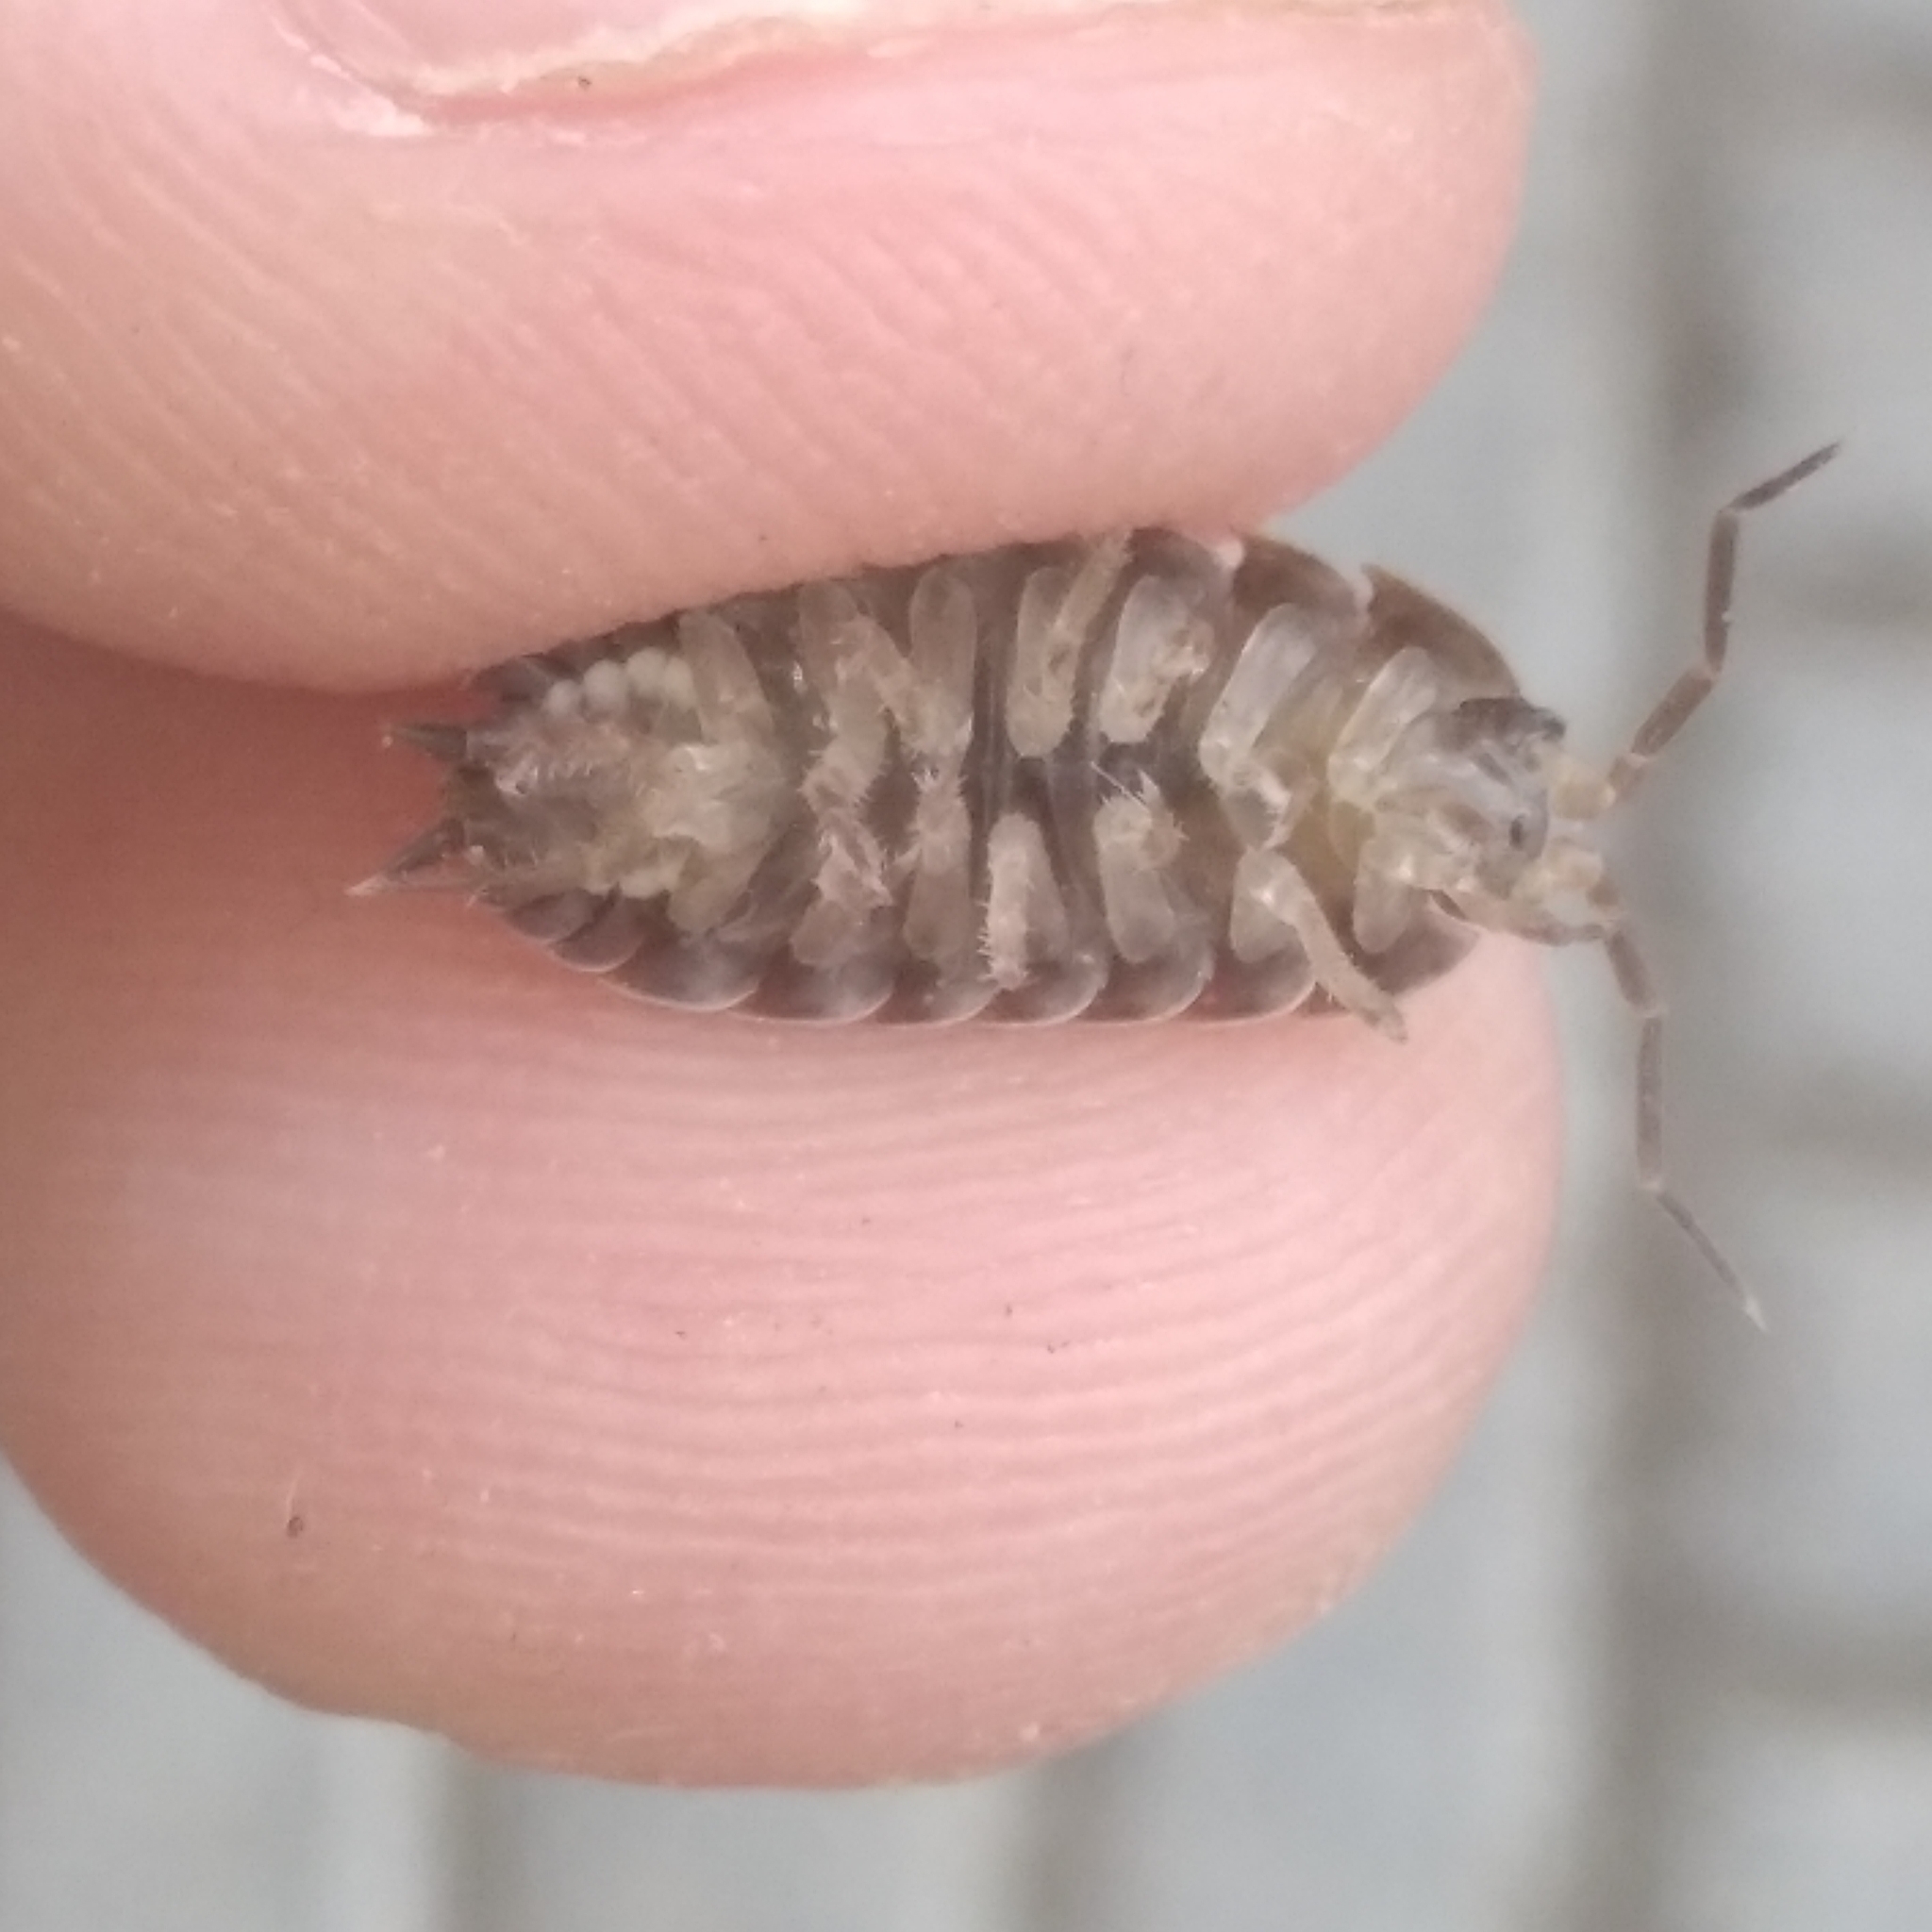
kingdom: Animalia
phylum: Arthropoda
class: Malacostraca
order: Isopoda
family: Trachelipodidae
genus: Trachelipus
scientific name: Trachelipus rathkii
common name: Isopod
